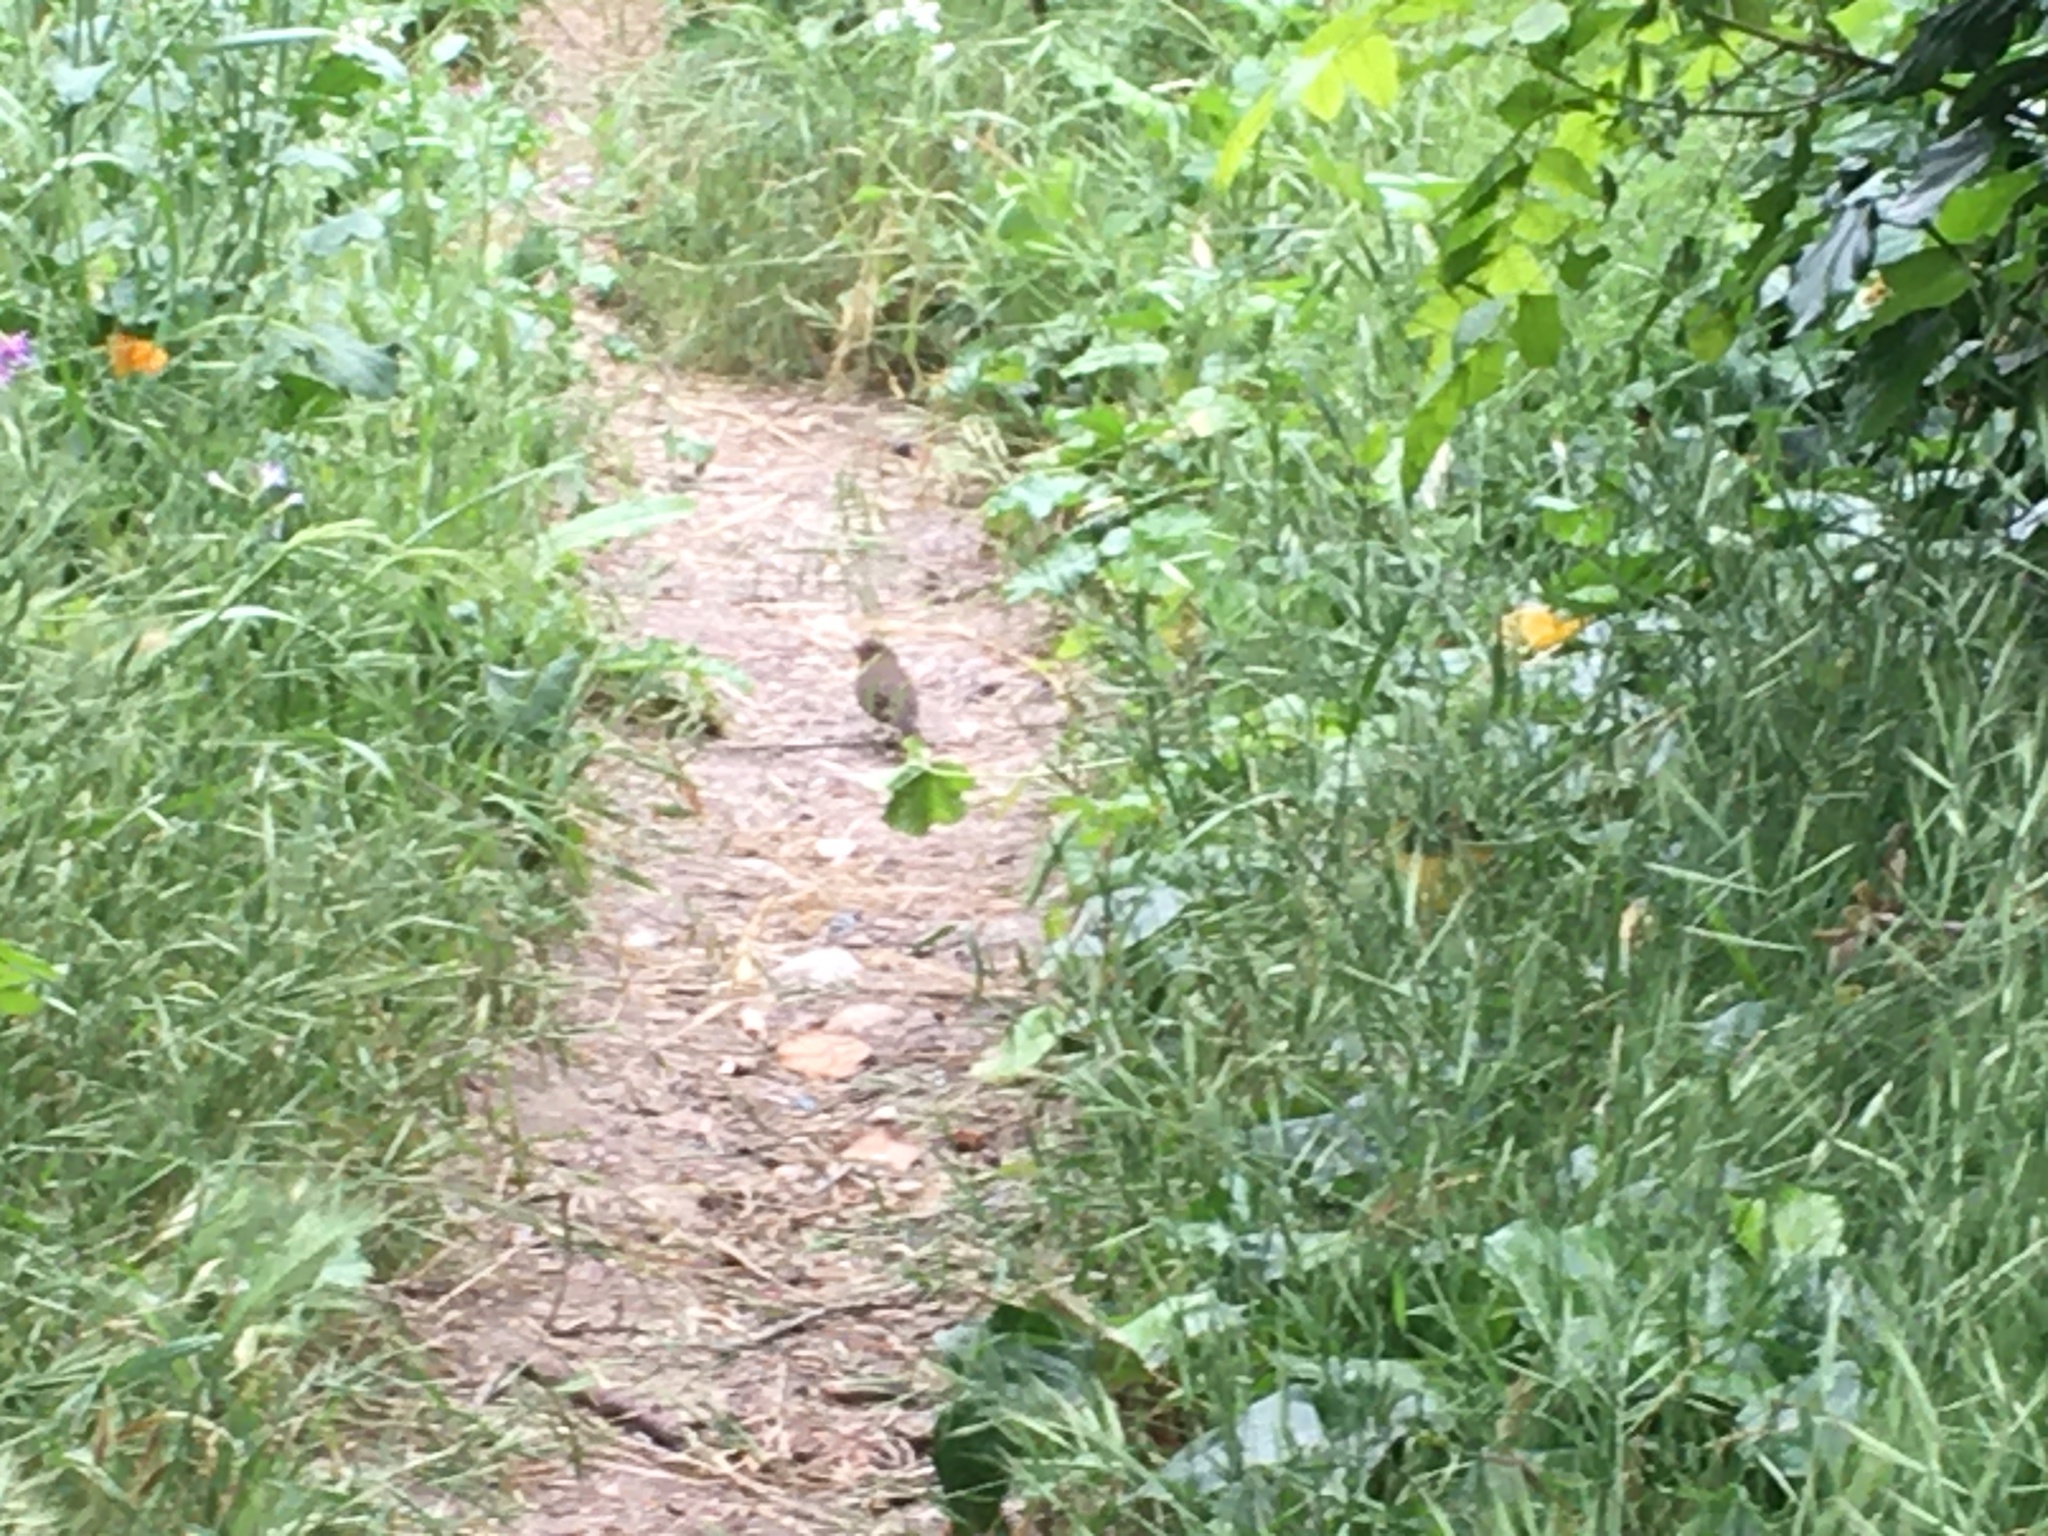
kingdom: Animalia
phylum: Chordata
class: Aves
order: Passeriformes
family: Passerellidae
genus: Melozone
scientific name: Melozone crissalis
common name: California towhee
